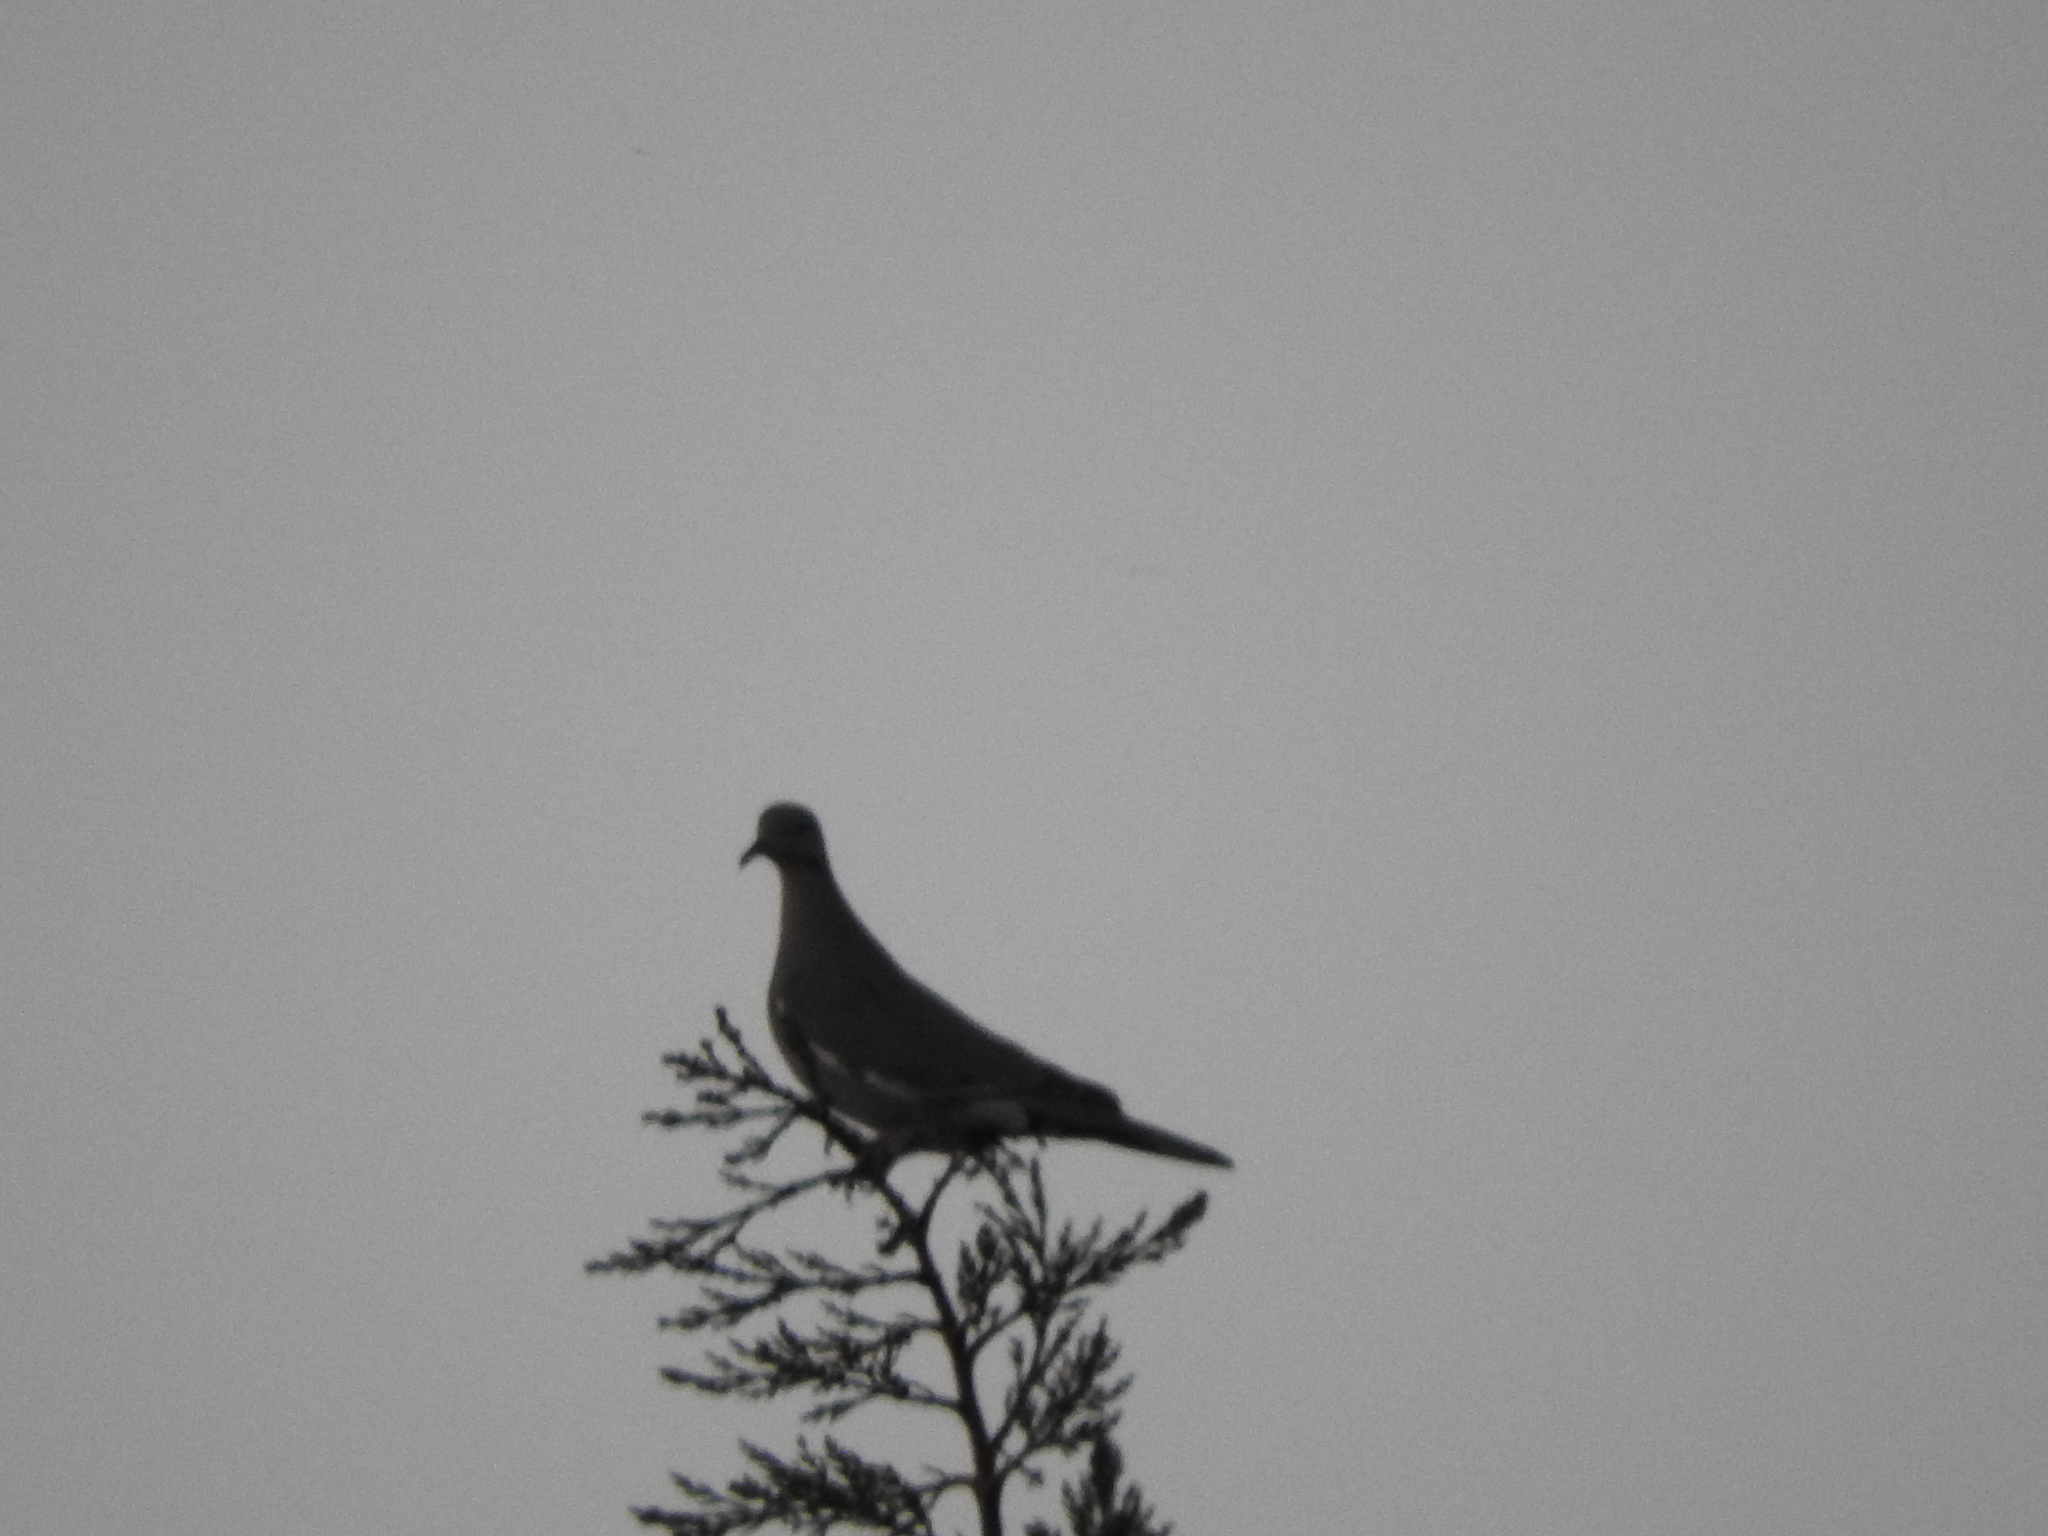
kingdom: Animalia
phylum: Chordata
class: Aves
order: Columbiformes
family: Columbidae
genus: Zenaida
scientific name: Zenaida asiatica
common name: White-winged dove
